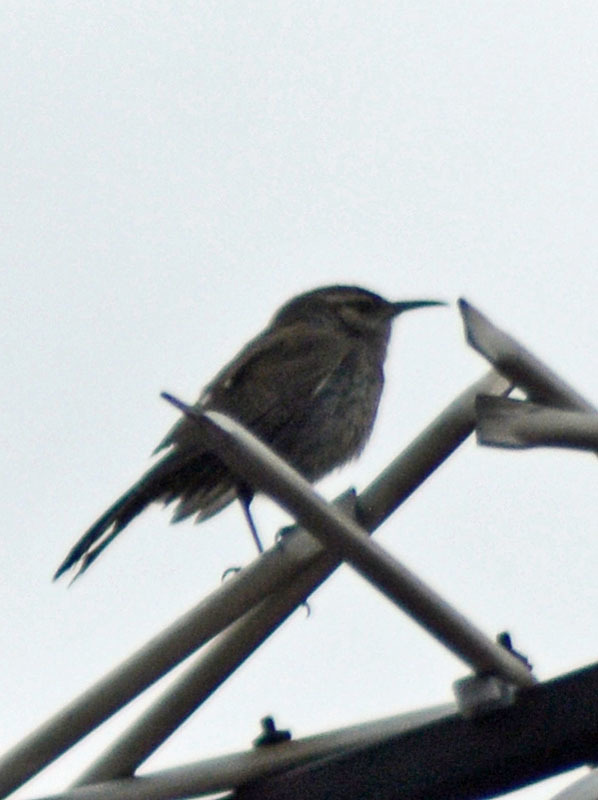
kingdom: Animalia
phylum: Chordata
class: Aves
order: Passeriformes
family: Troglodytidae
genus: Thryomanes
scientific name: Thryomanes bewickii
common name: Bewick's wren
